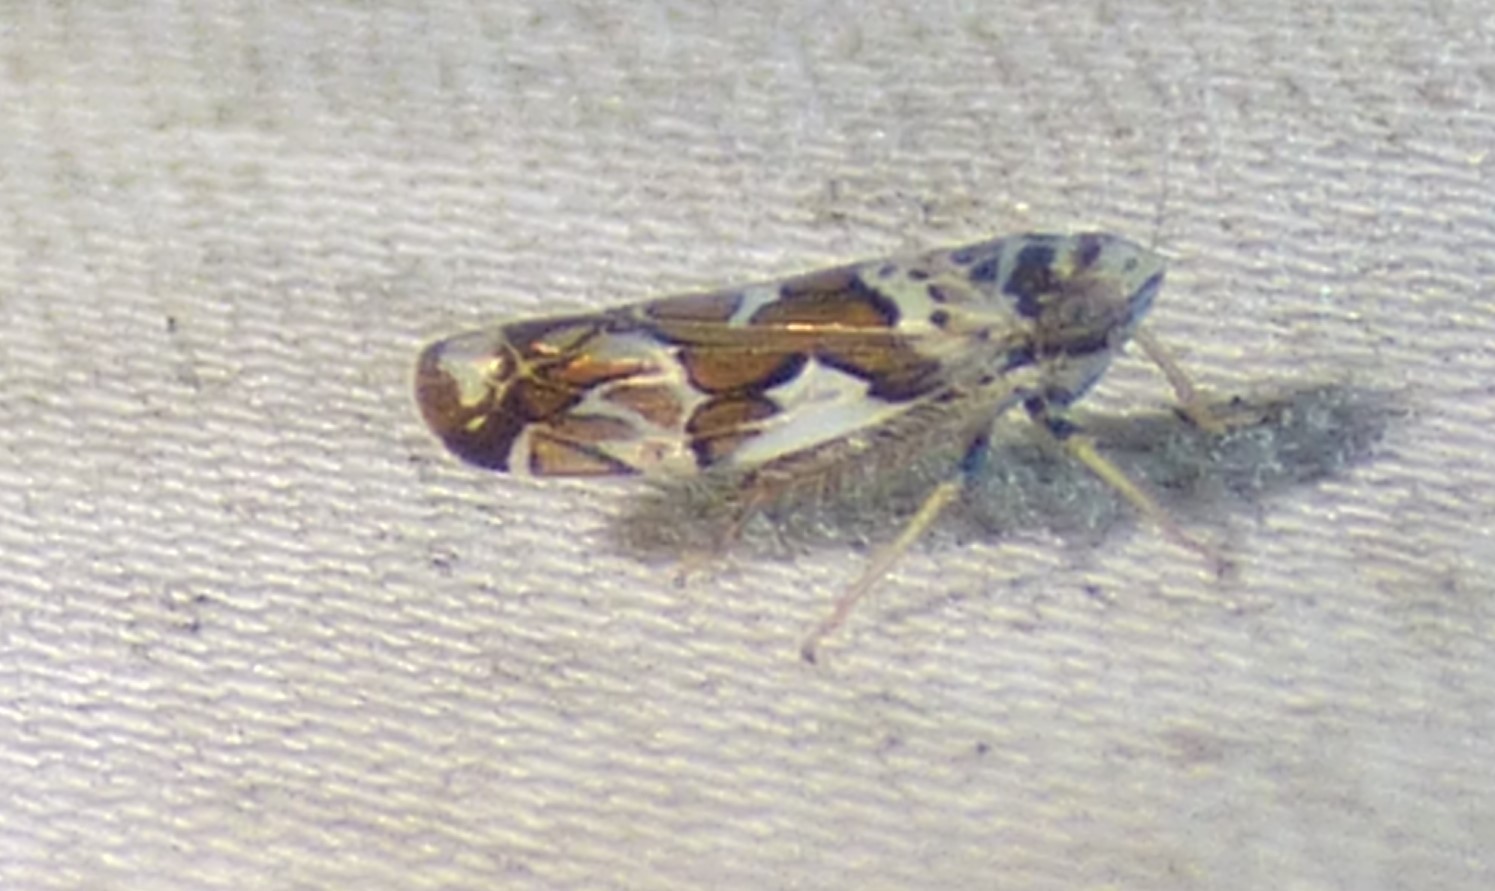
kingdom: Animalia
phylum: Arthropoda
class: Insecta
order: Hemiptera
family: Cicadellidae
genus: Sanctanus
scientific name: Sanctanus cruciatus
